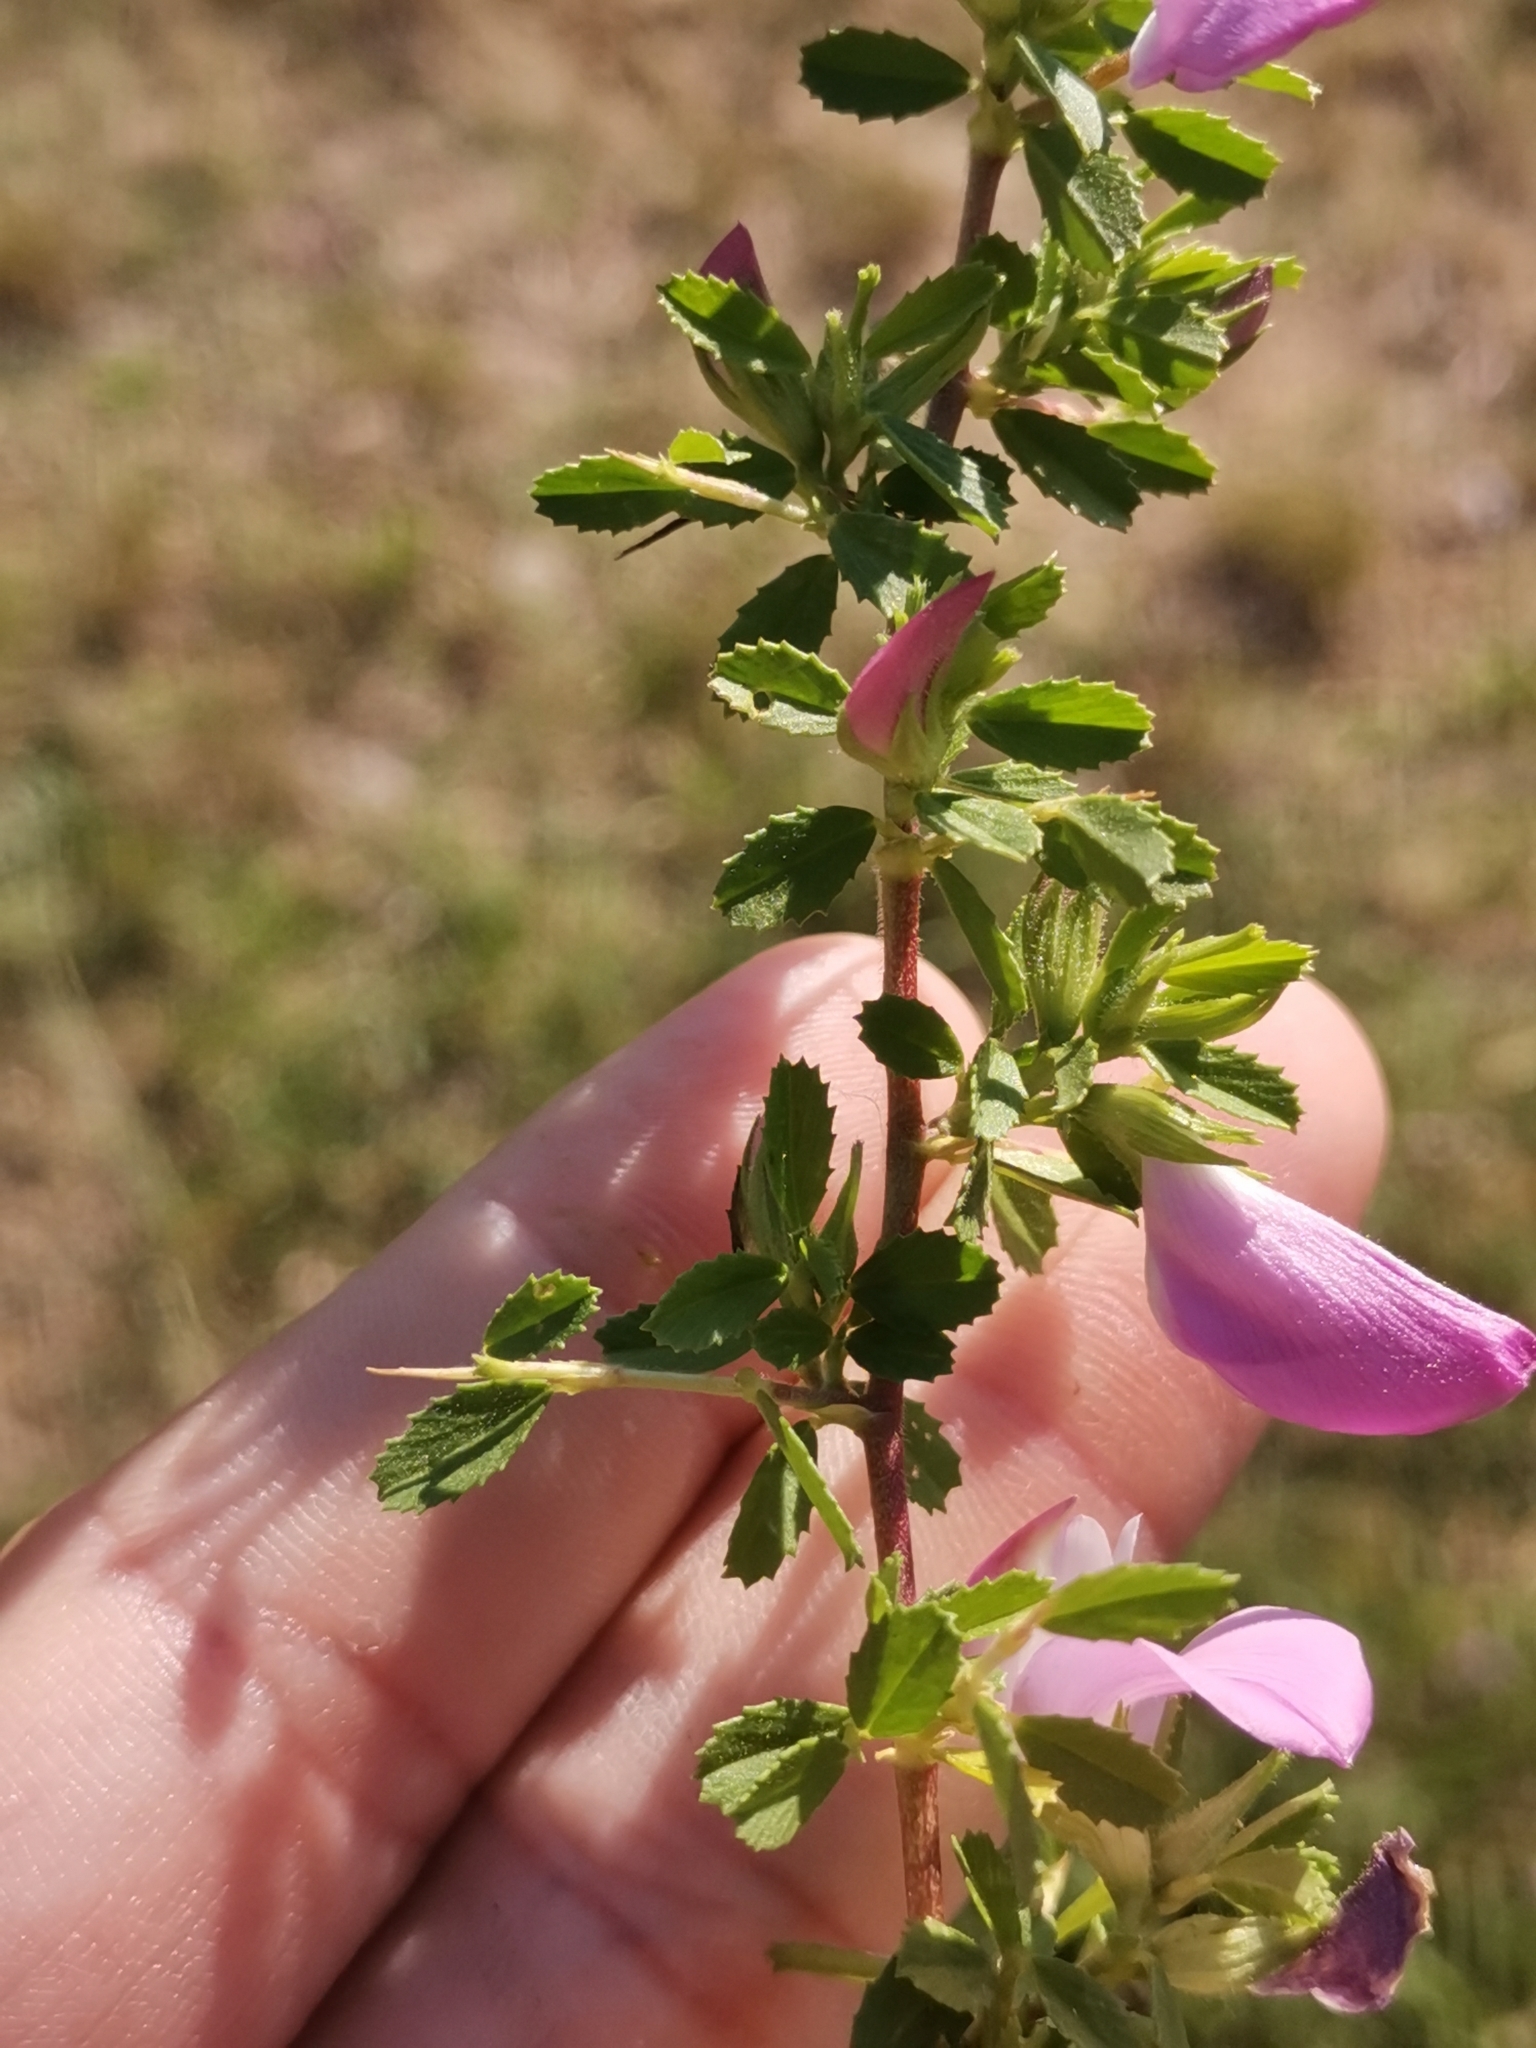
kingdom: Plantae
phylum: Tracheophyta
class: Magnoliopsida
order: Fabales
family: Fabaceae
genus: Ononis
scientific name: Ononis spinosa
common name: Spiny restharrow
